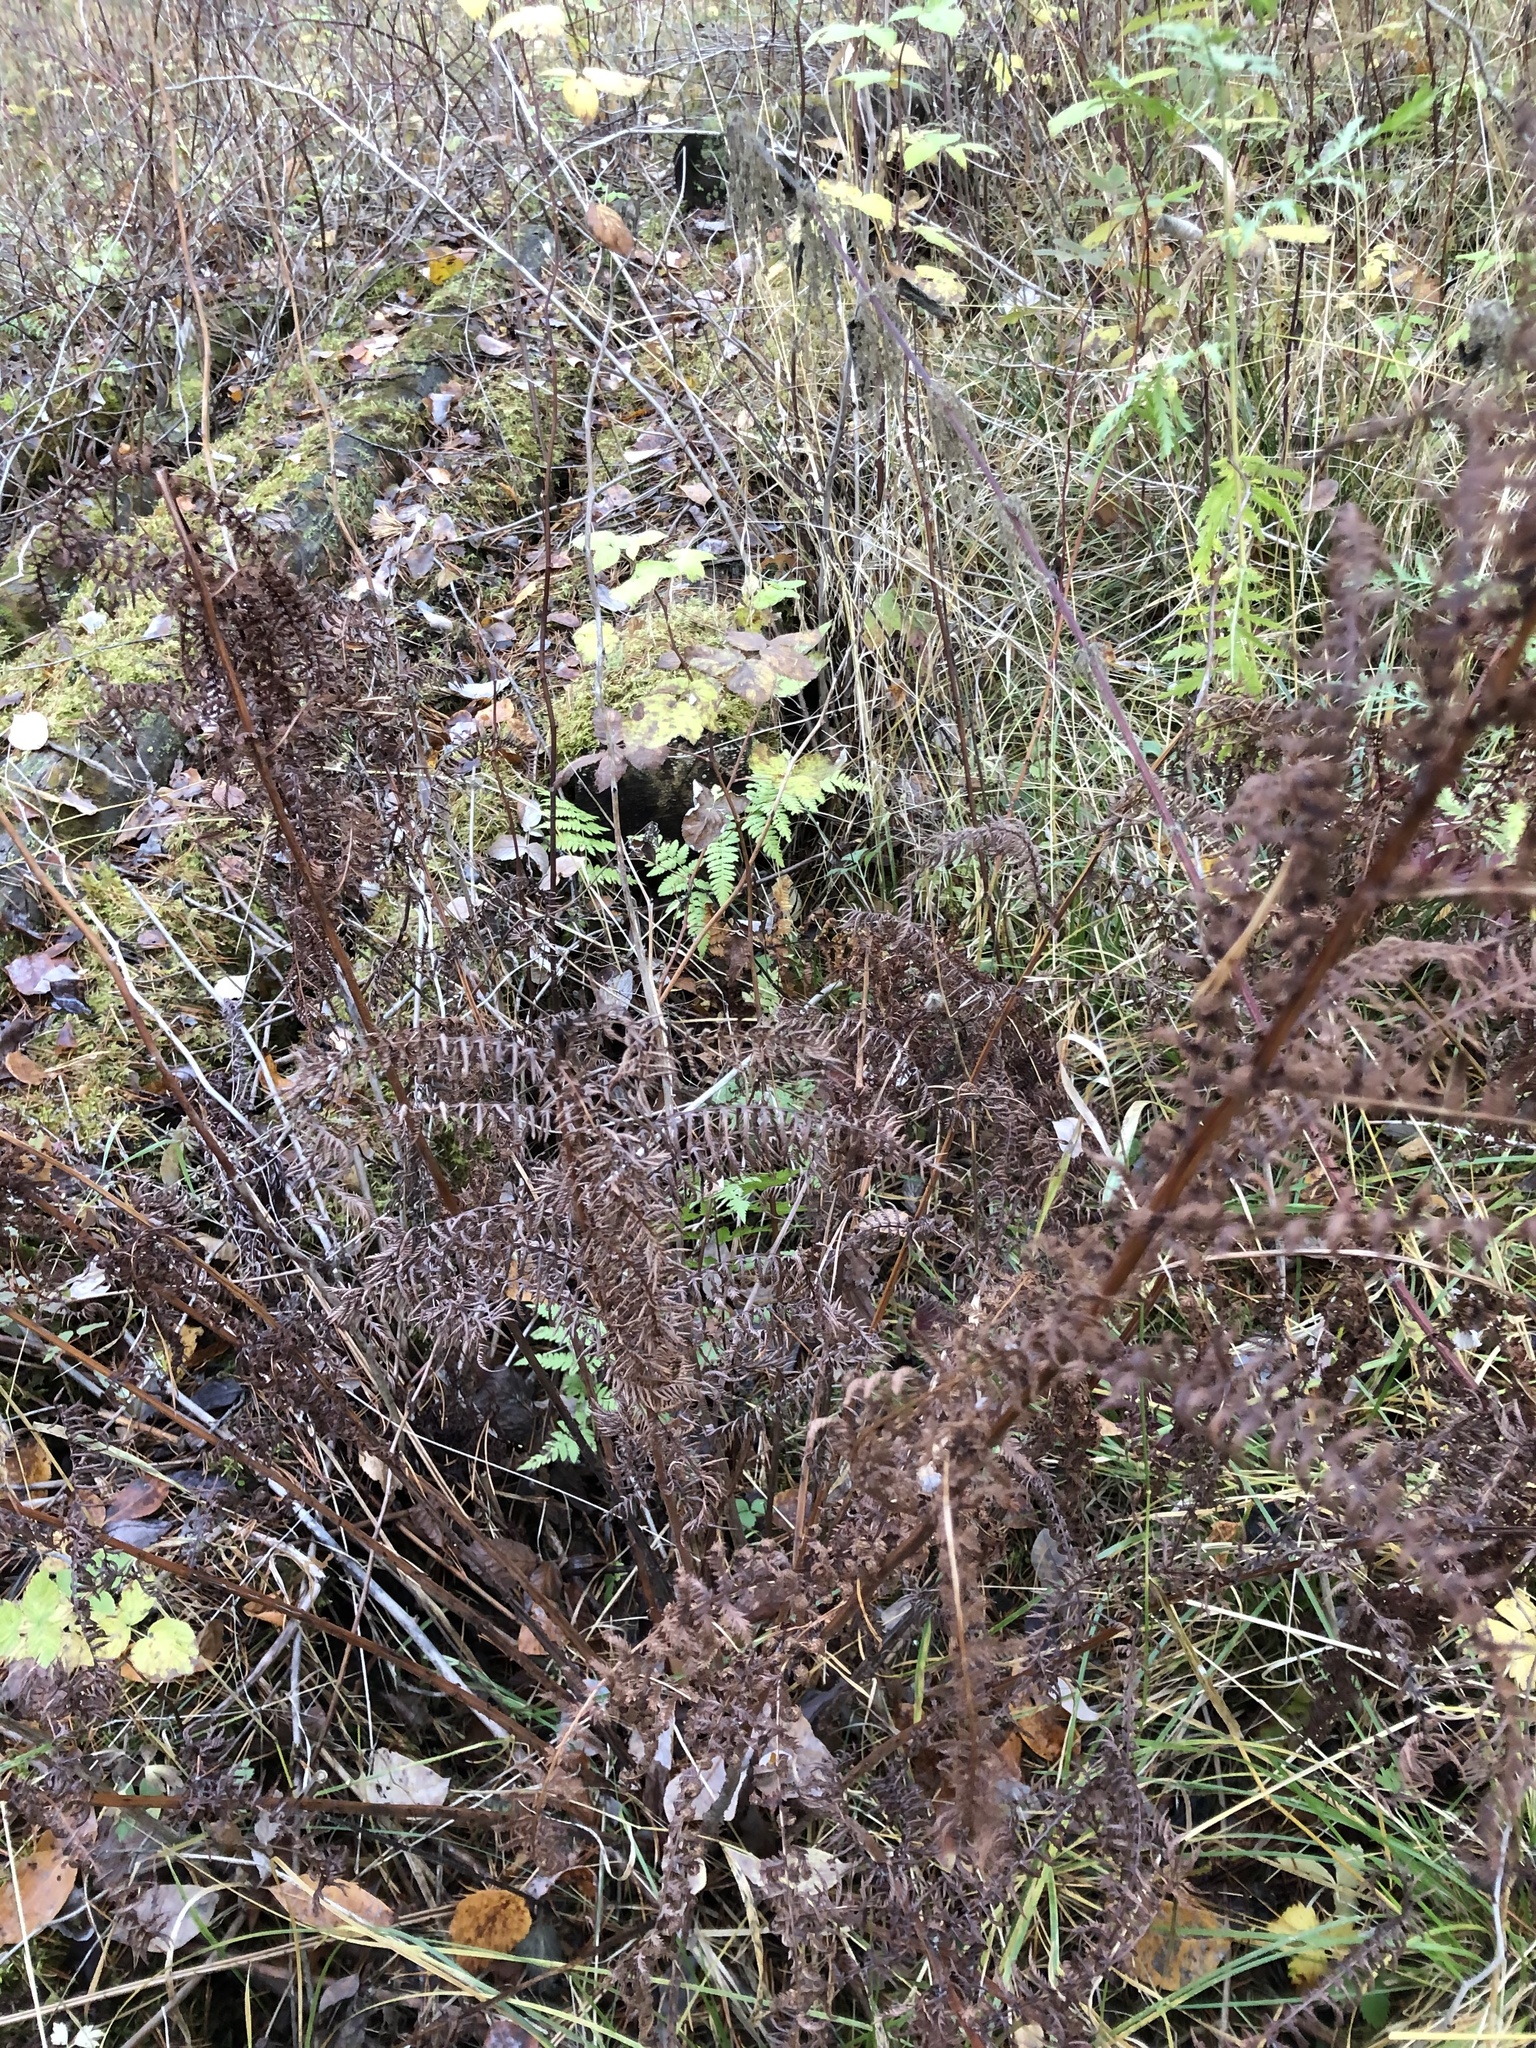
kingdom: Plantae
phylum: Tracheophyta
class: Polypodiopsida
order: Polypodiales
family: Athyriaceae
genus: Athyrium
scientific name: Athyrium filix-femina
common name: Lady fern
